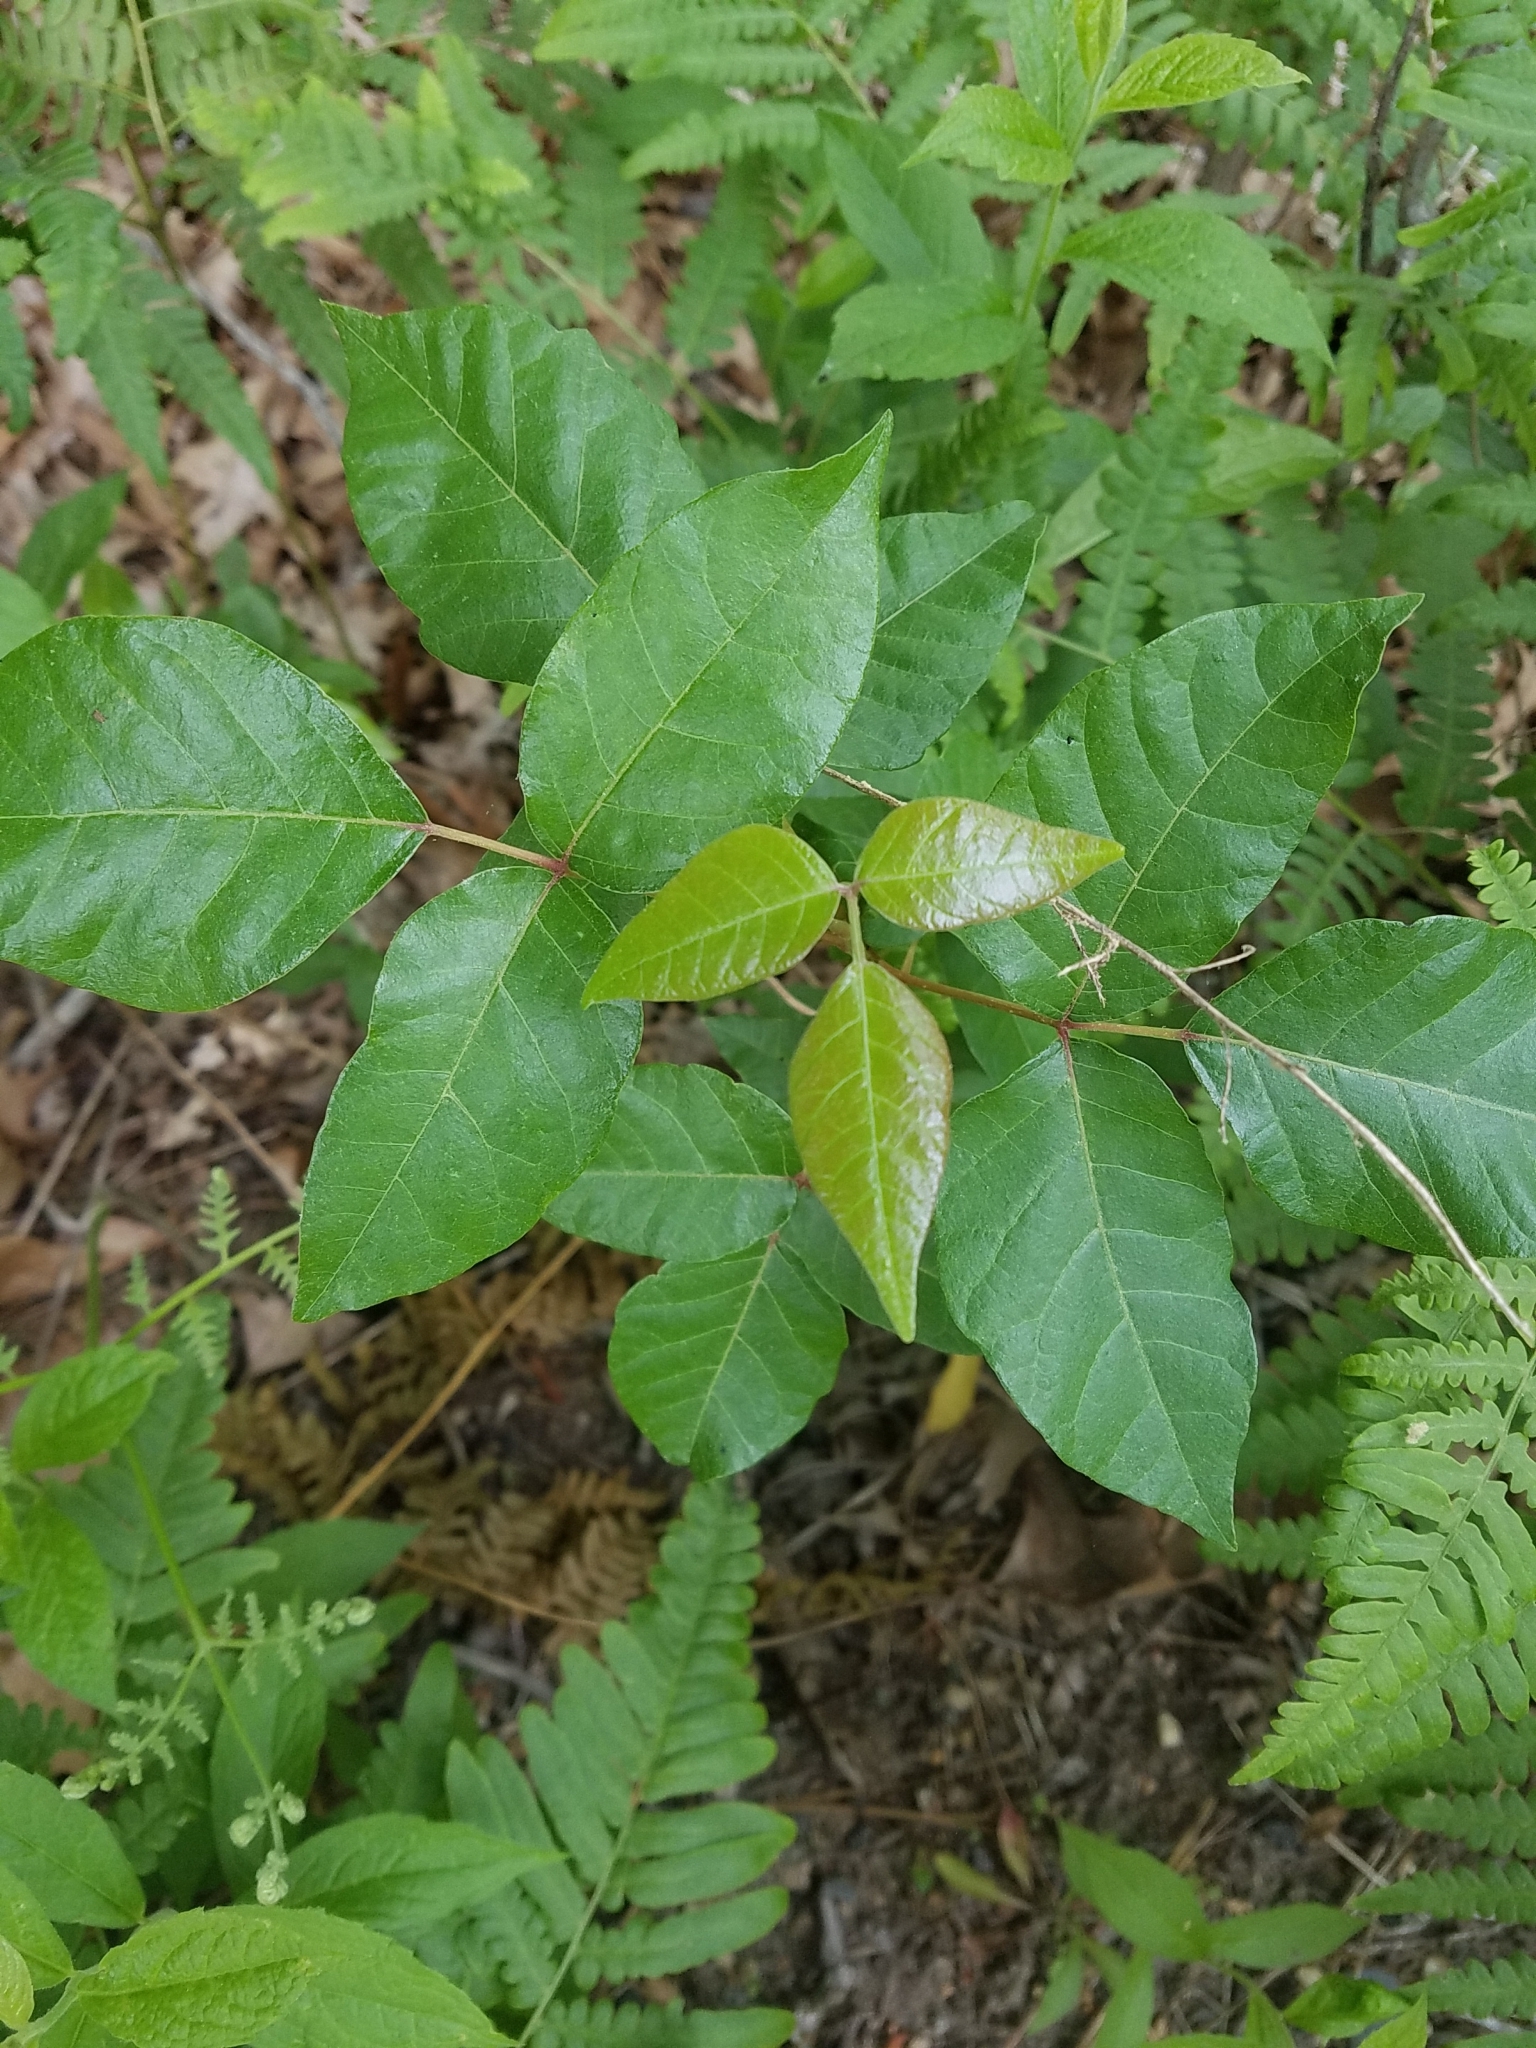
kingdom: Plantae
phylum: Tracheophyta
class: Magnoliopsida
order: Sapindales
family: Anacardiaceae
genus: Toxicodendron
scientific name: Toxicodendron radicans
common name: Poison ivy
